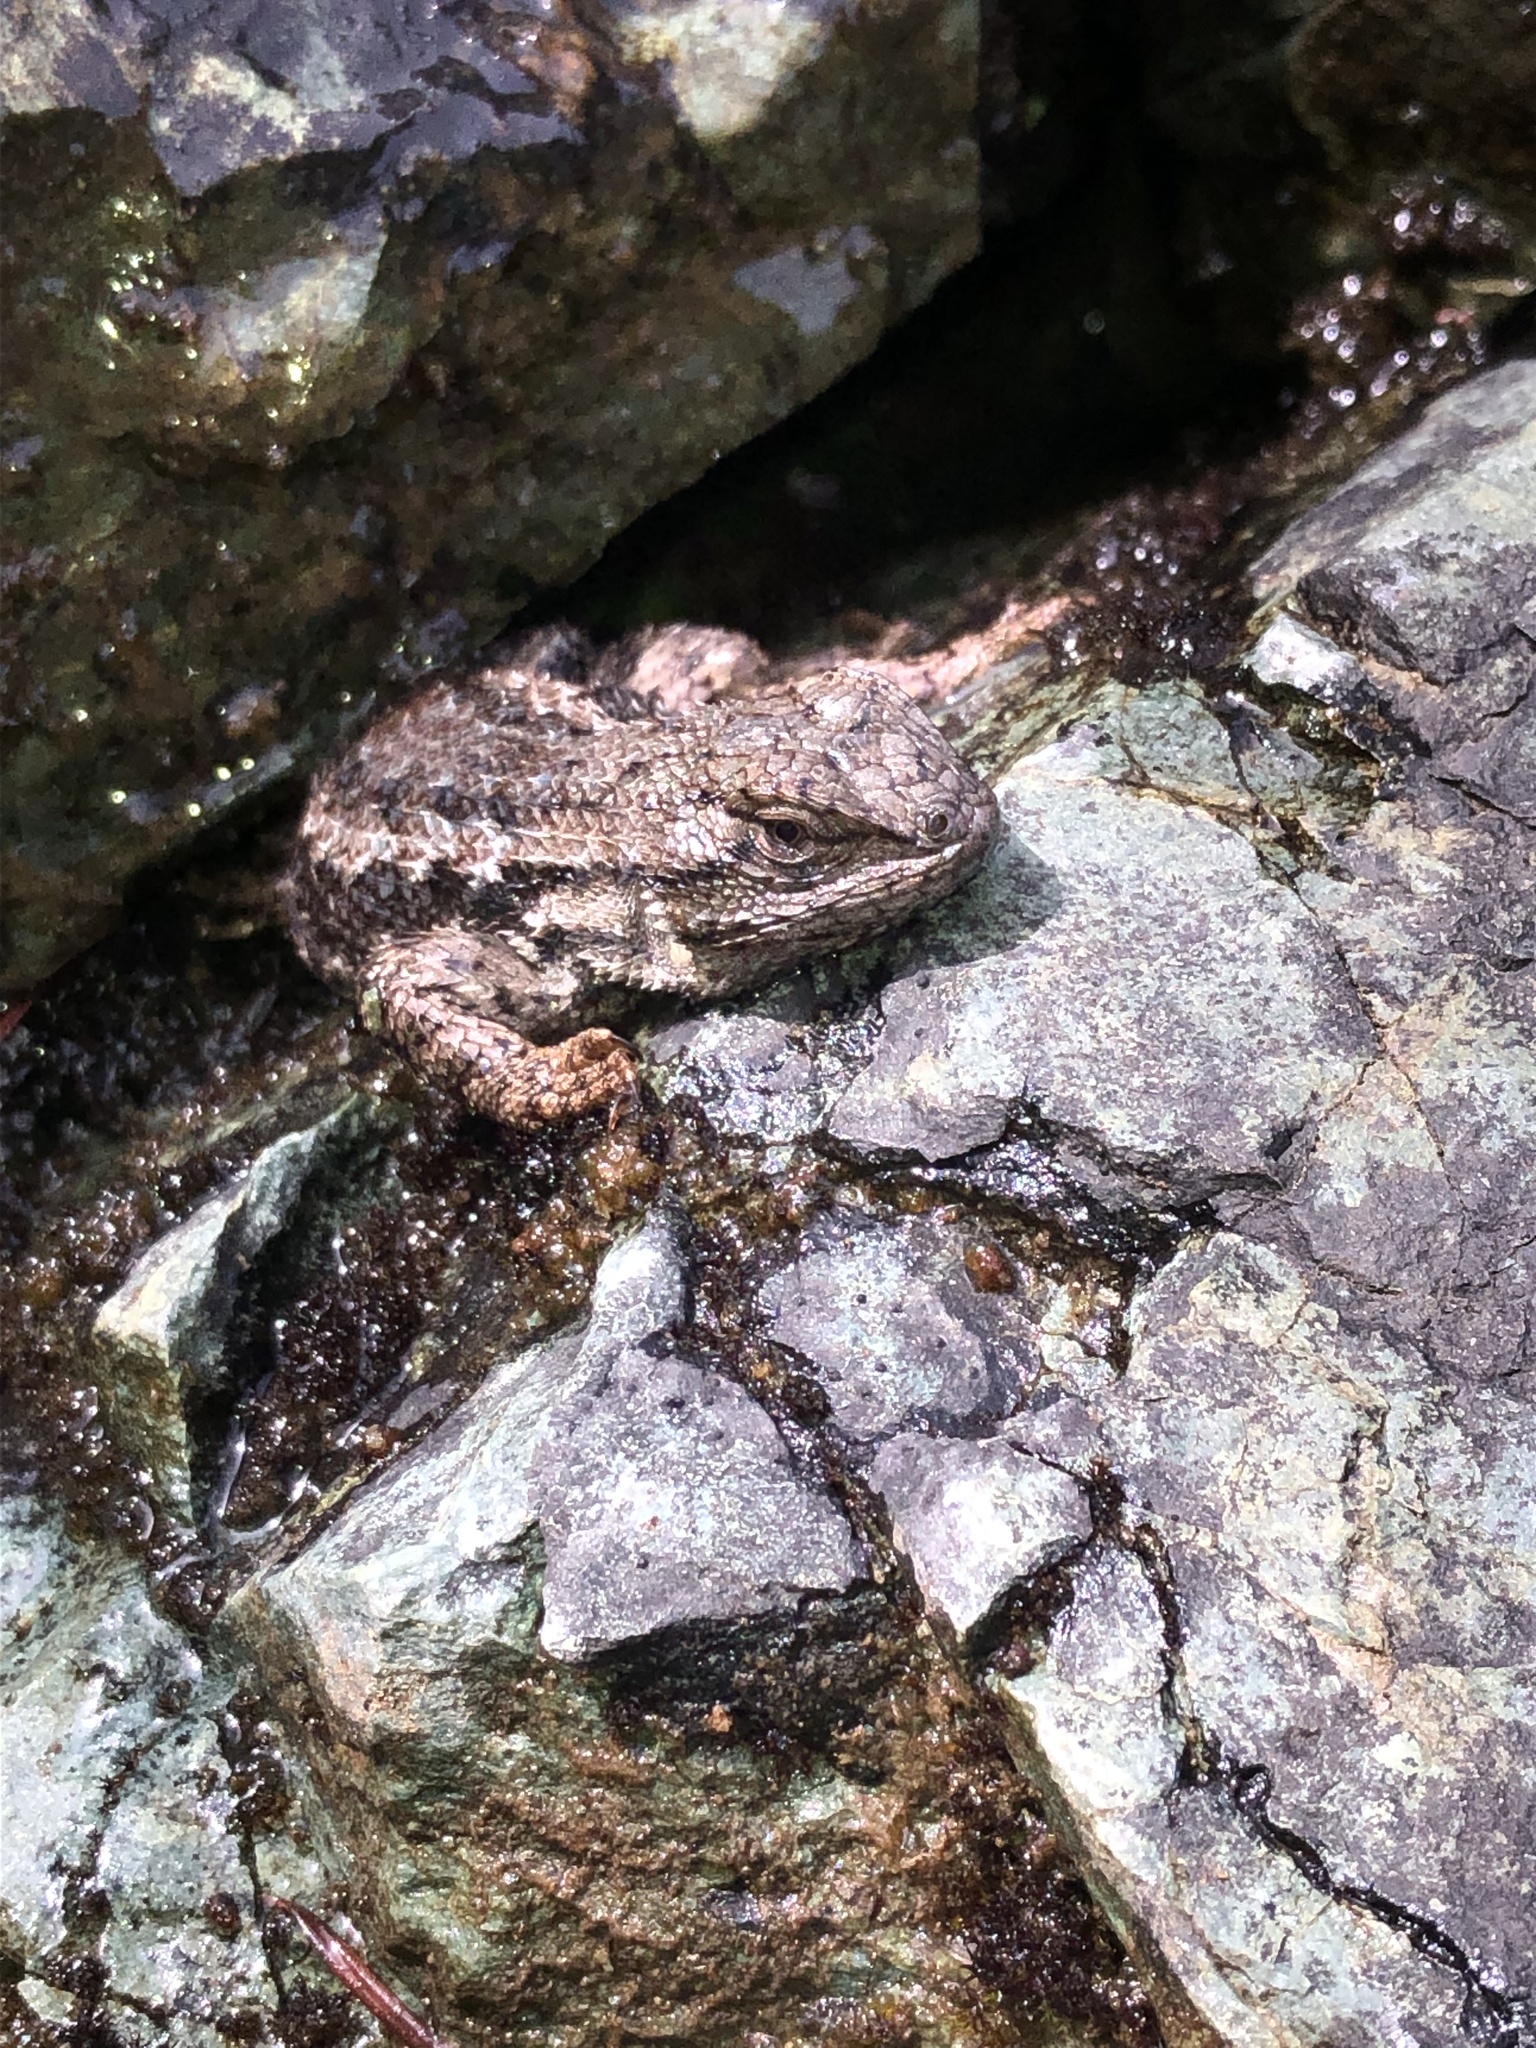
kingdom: Animalia
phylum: Chordata
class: Squamata
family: Phrynosomatidae
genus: Sceloporus
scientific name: Sceloporus occidentalis
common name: Western fence lizard
